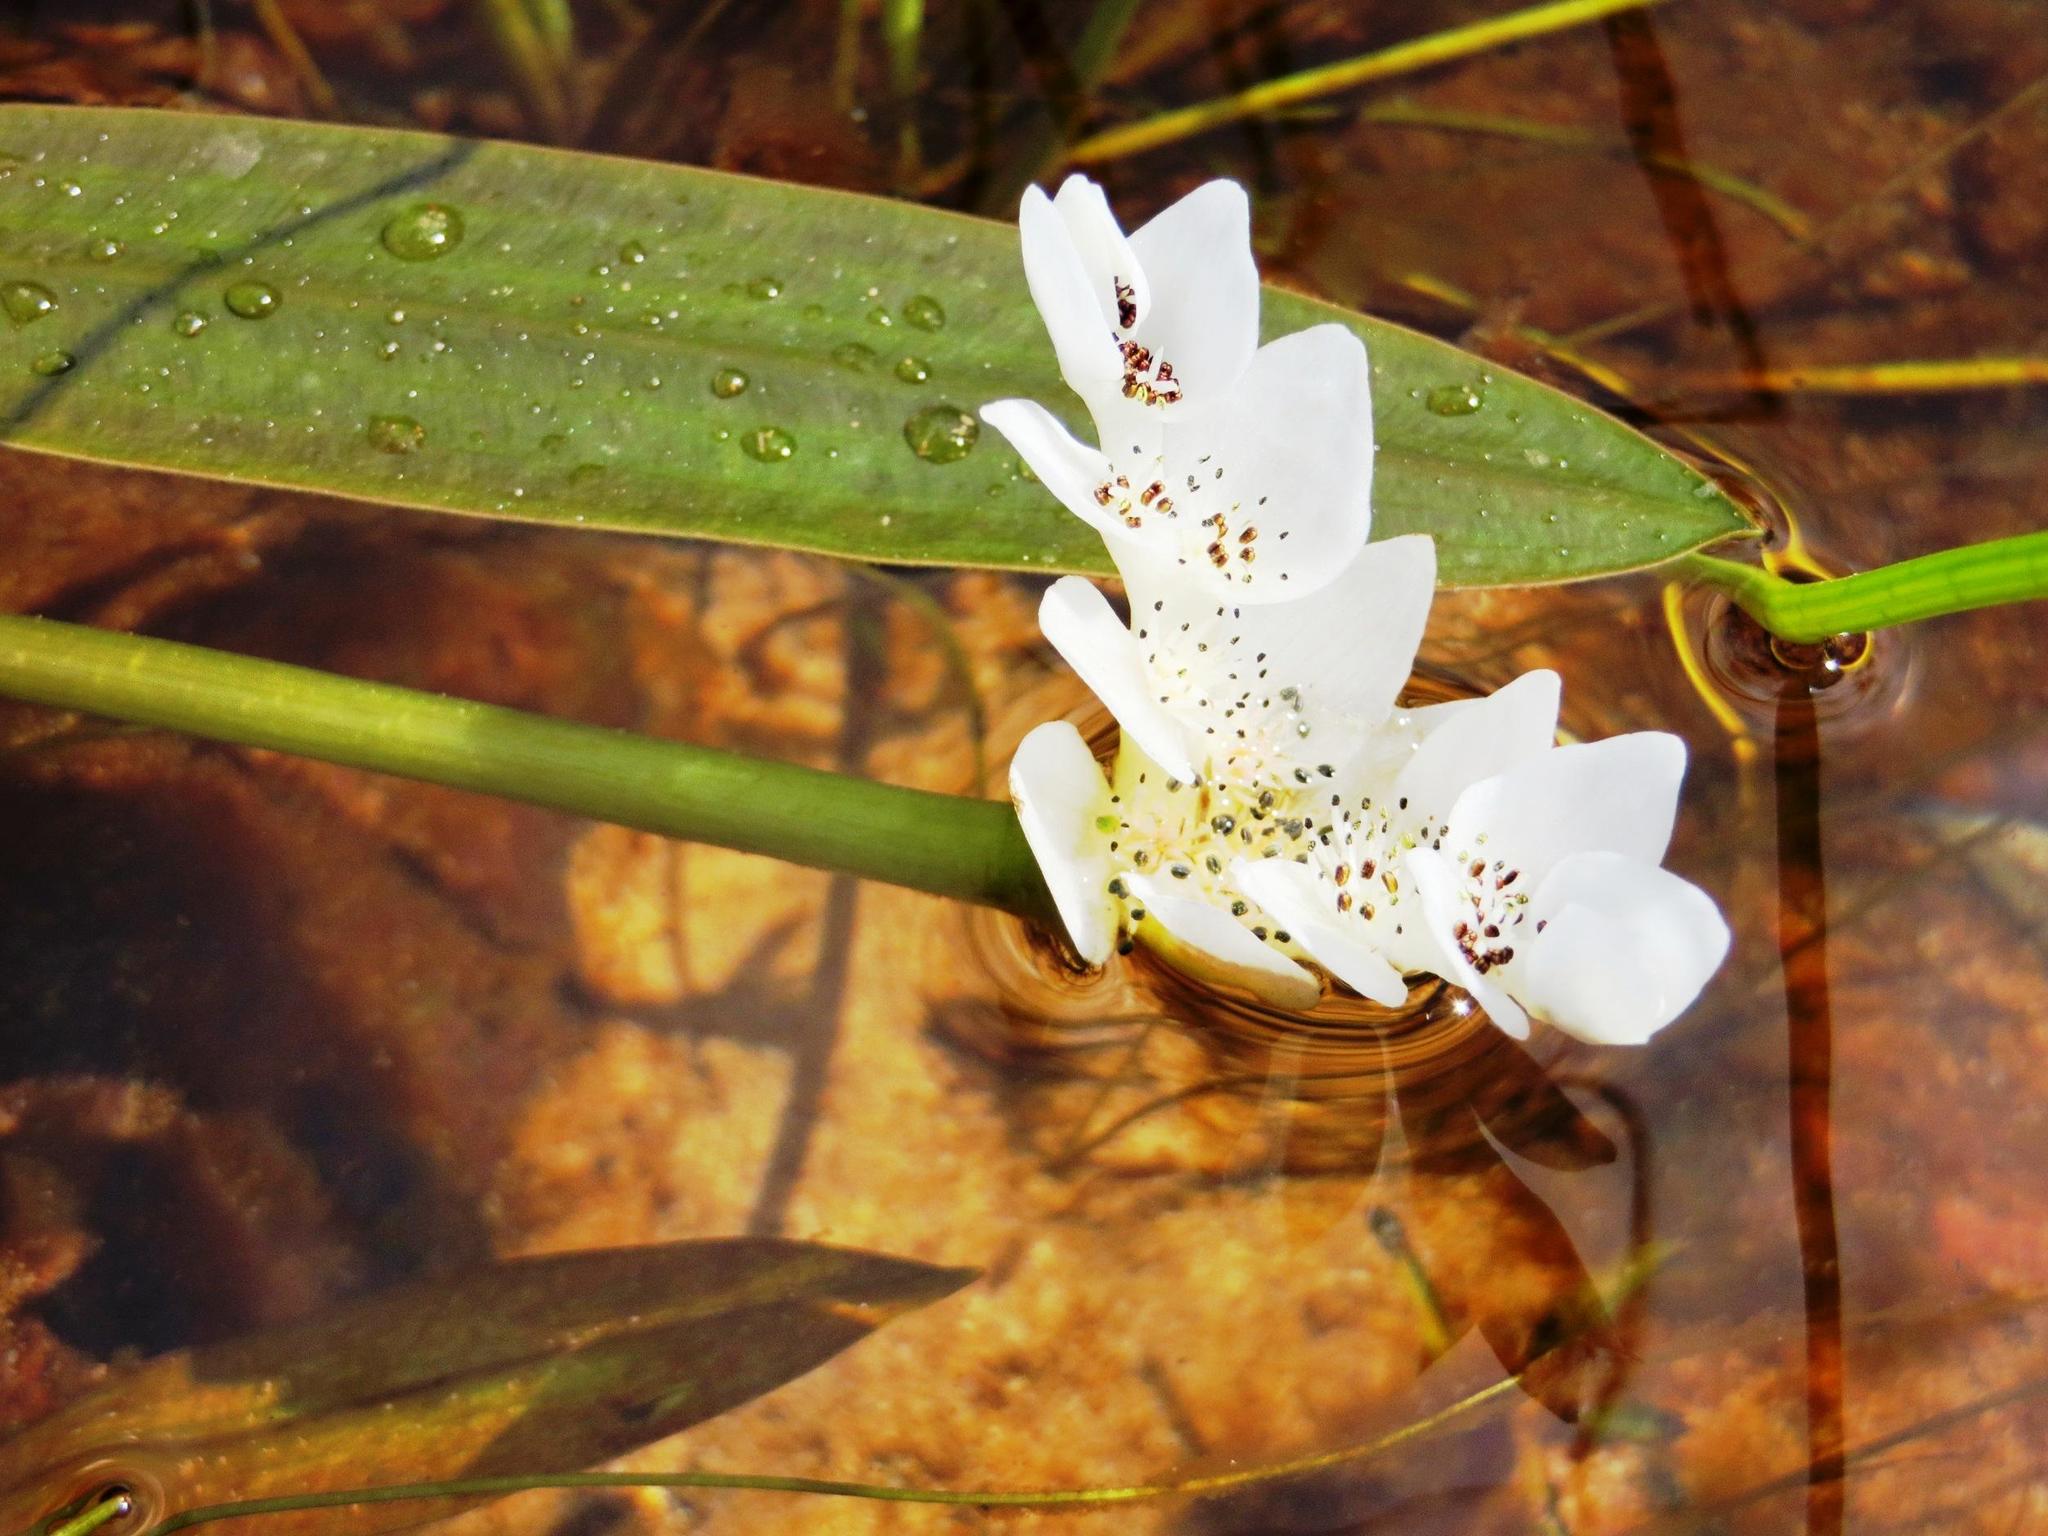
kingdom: Plantae
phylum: Tracheophyta
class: Liliopsida
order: Alismatales
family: Aponogetonaceae
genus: Aponogeton
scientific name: Aponogeton distachyos
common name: Cape-pondweed
